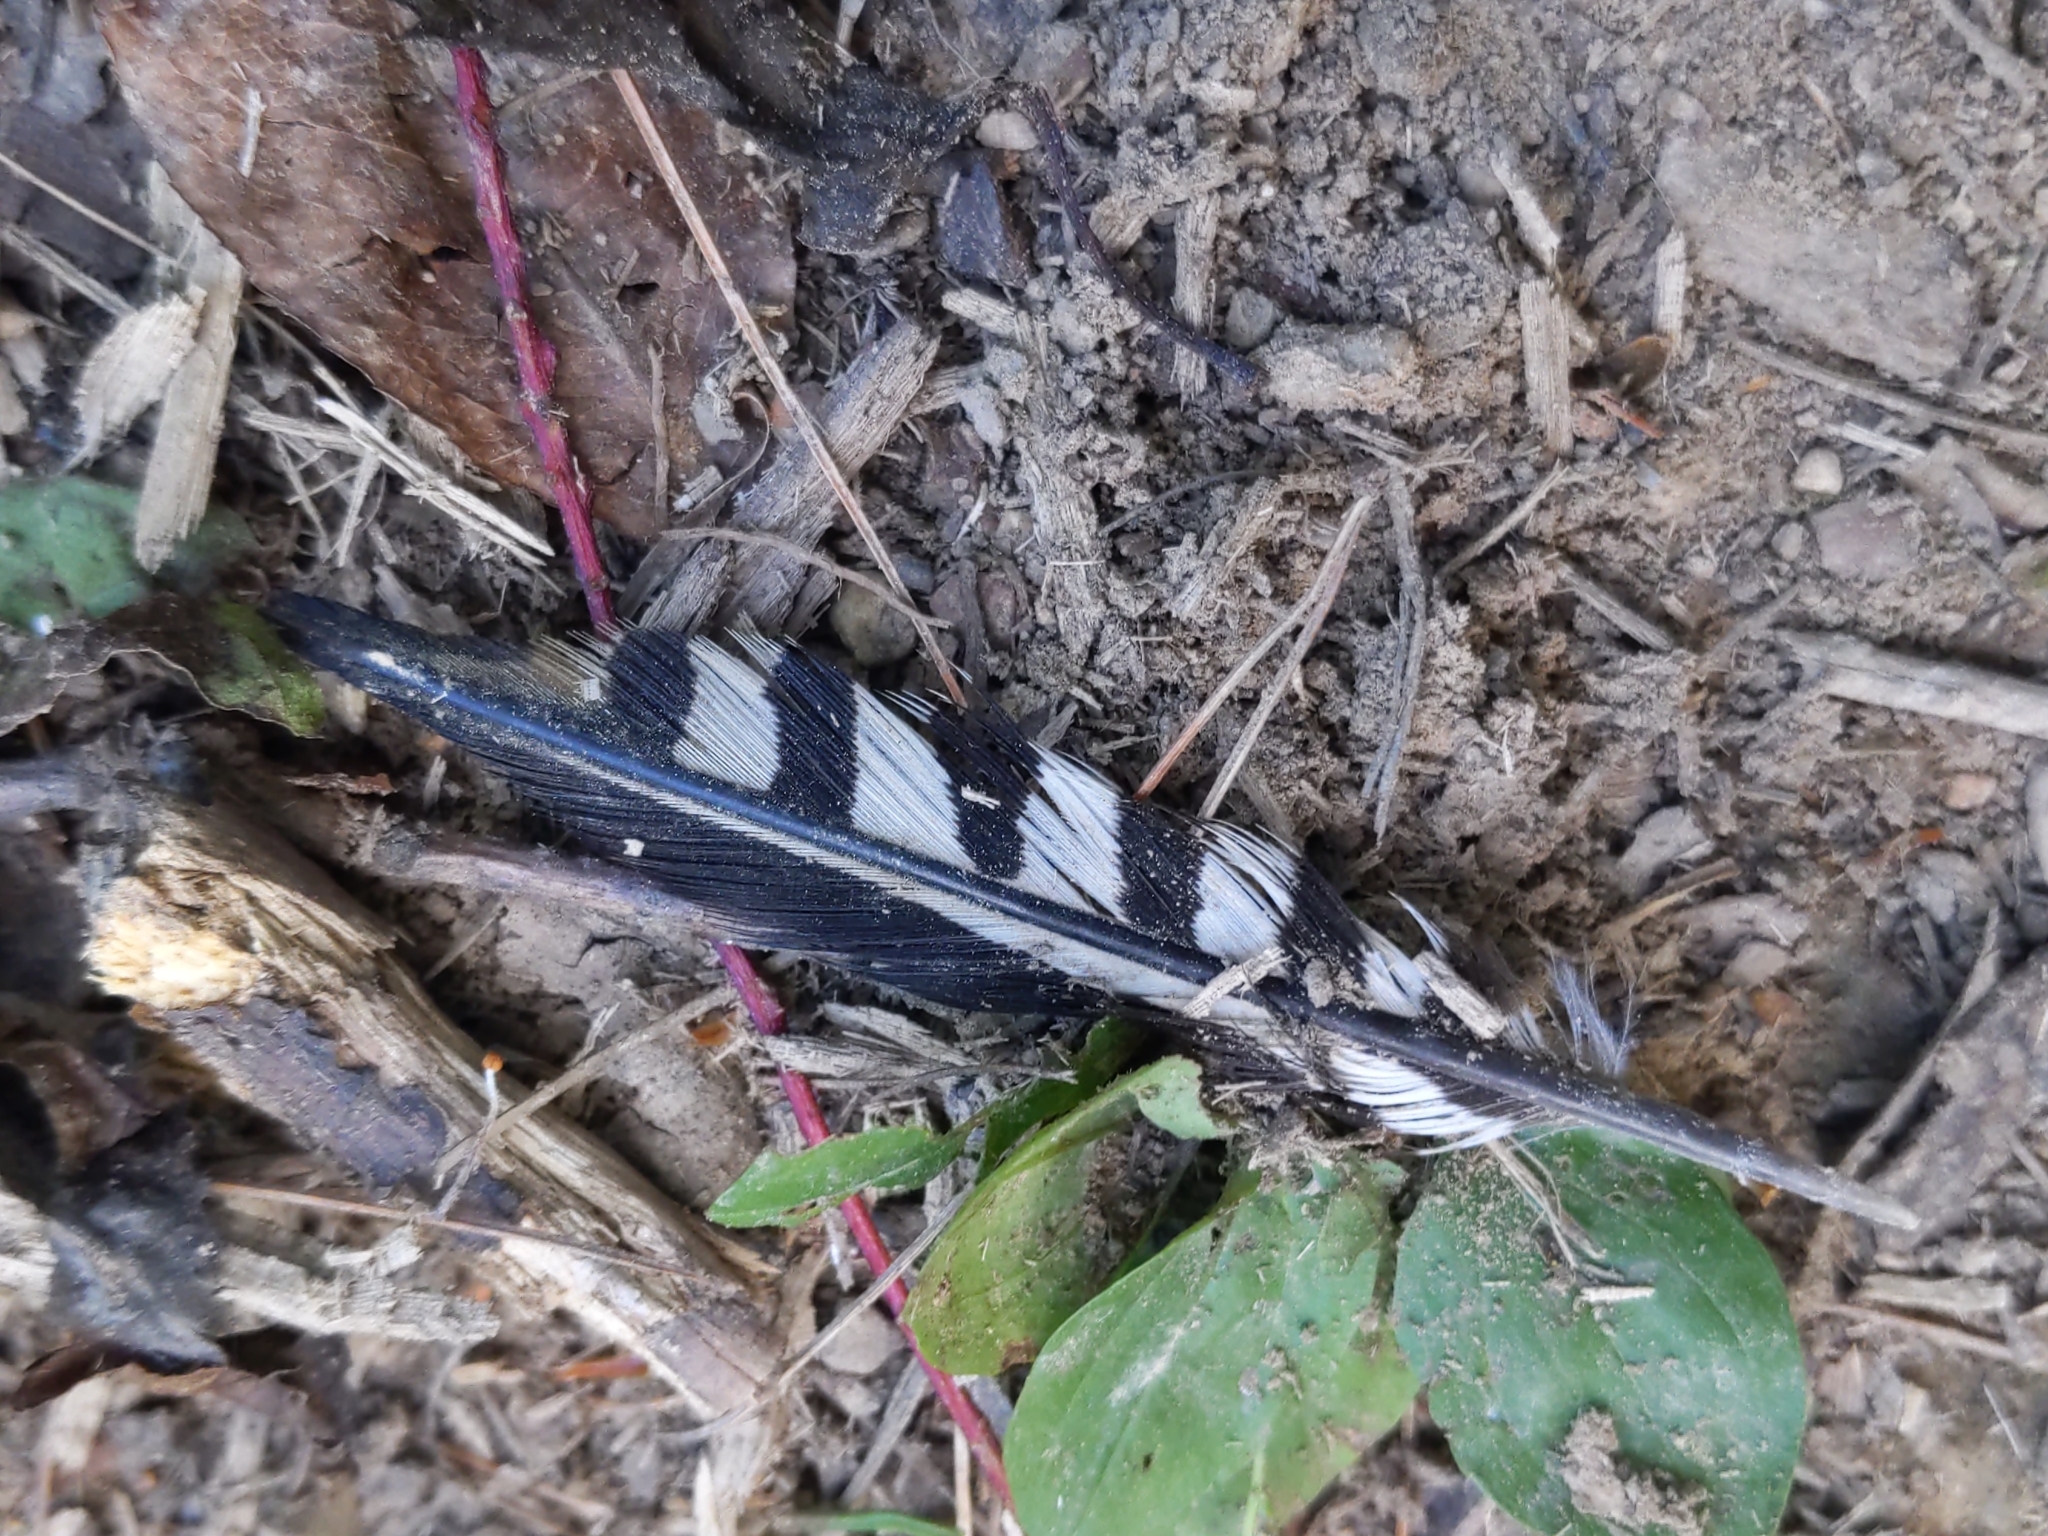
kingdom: Animalia
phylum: Chordata
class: Aves
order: Piciformes
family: Picidae
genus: Melanerpes
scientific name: Melanerpes carolinus
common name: Red-bellied woodpecker
